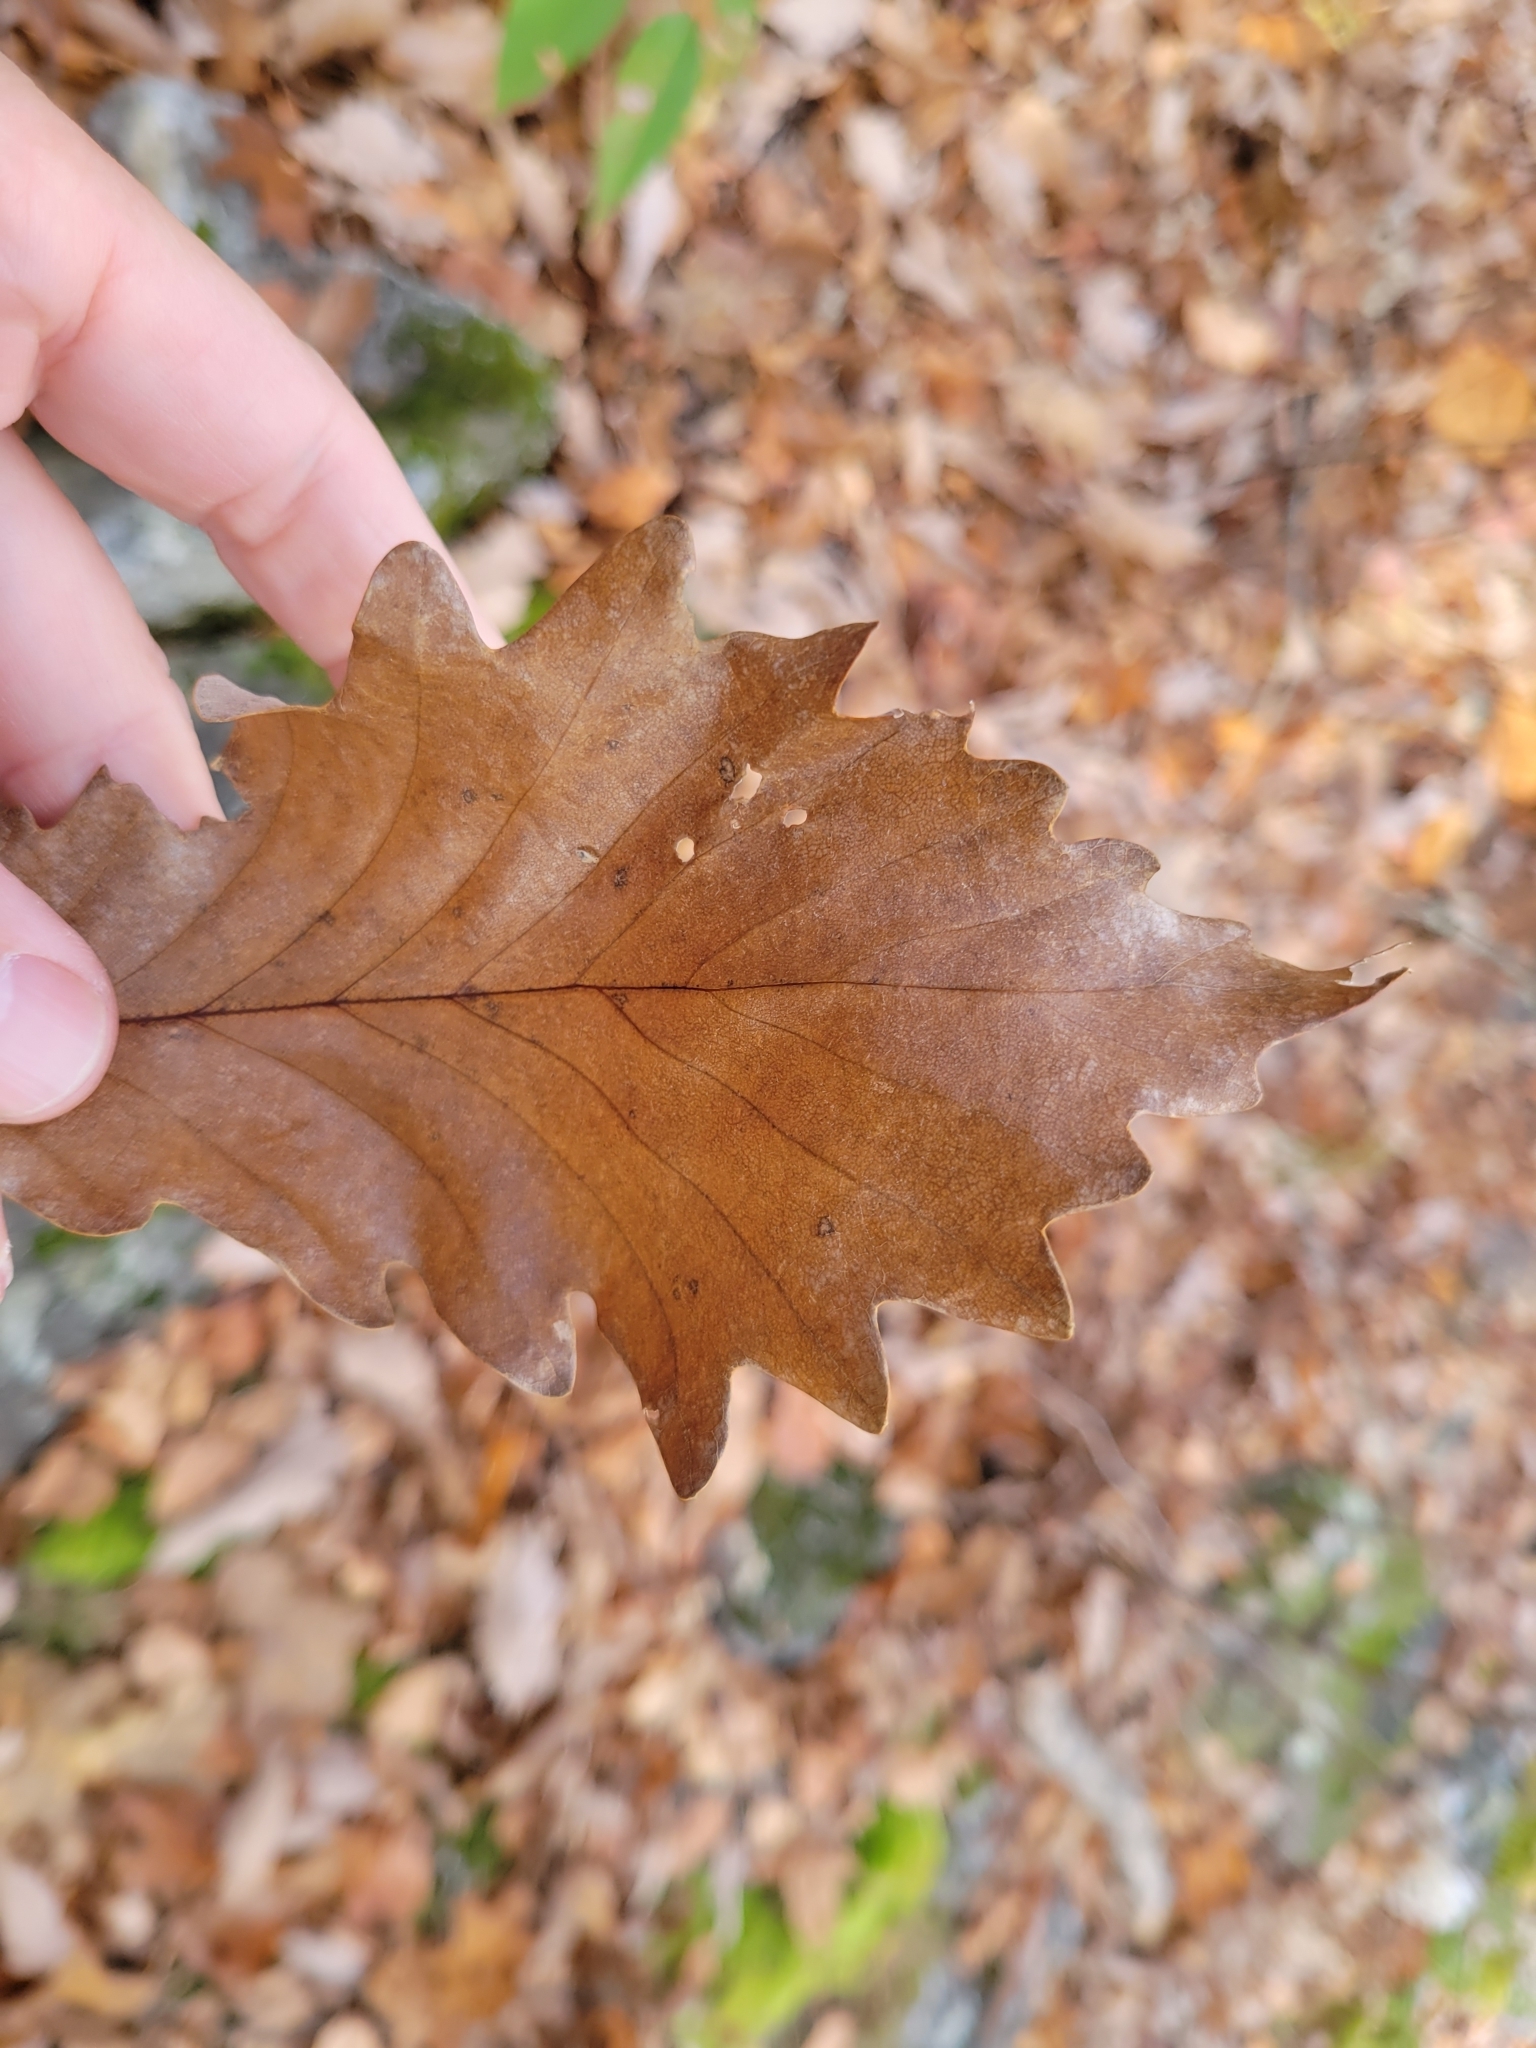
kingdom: Plantae
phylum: Tracheophyta
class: Magnoliopsida
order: Fagales
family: Fagaceae
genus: Quercus
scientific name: Quercus montana
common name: Chestnut oak
